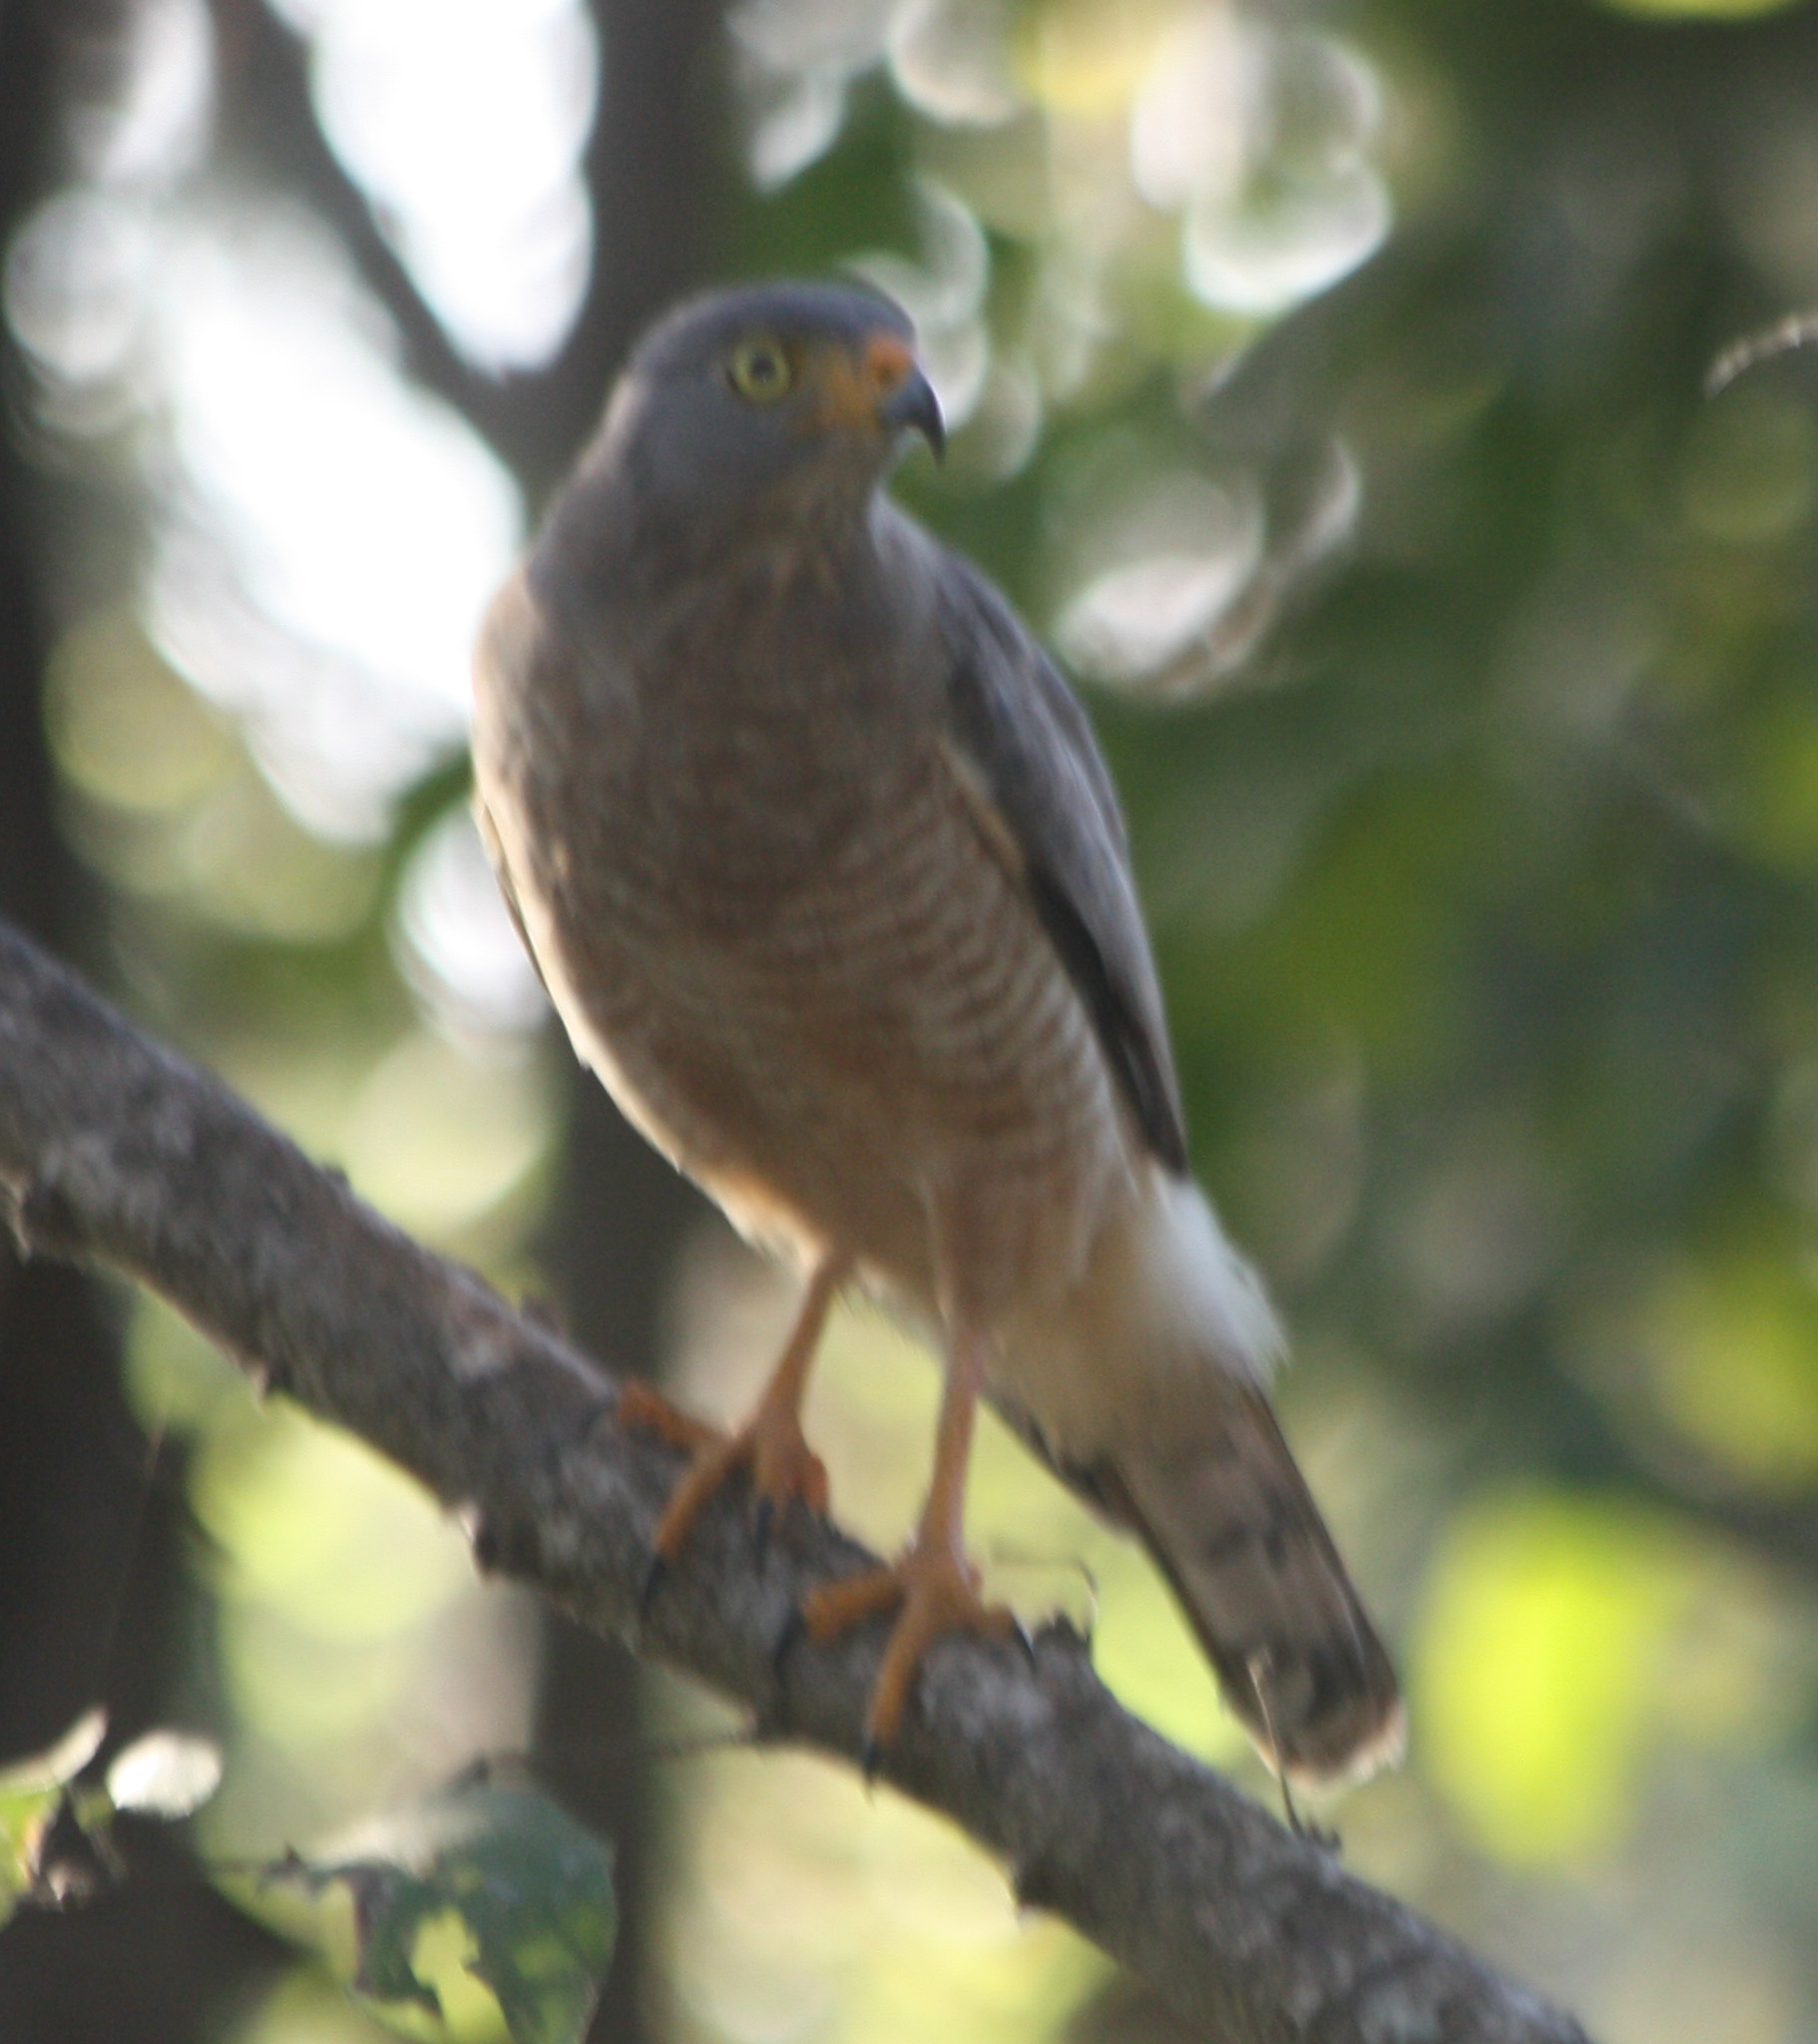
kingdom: Animalia
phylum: Chordata
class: Aves
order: Accipitriformes
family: Accipitridae
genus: Rupornis
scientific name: Rupornis magnirostris
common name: Roadside hawk
